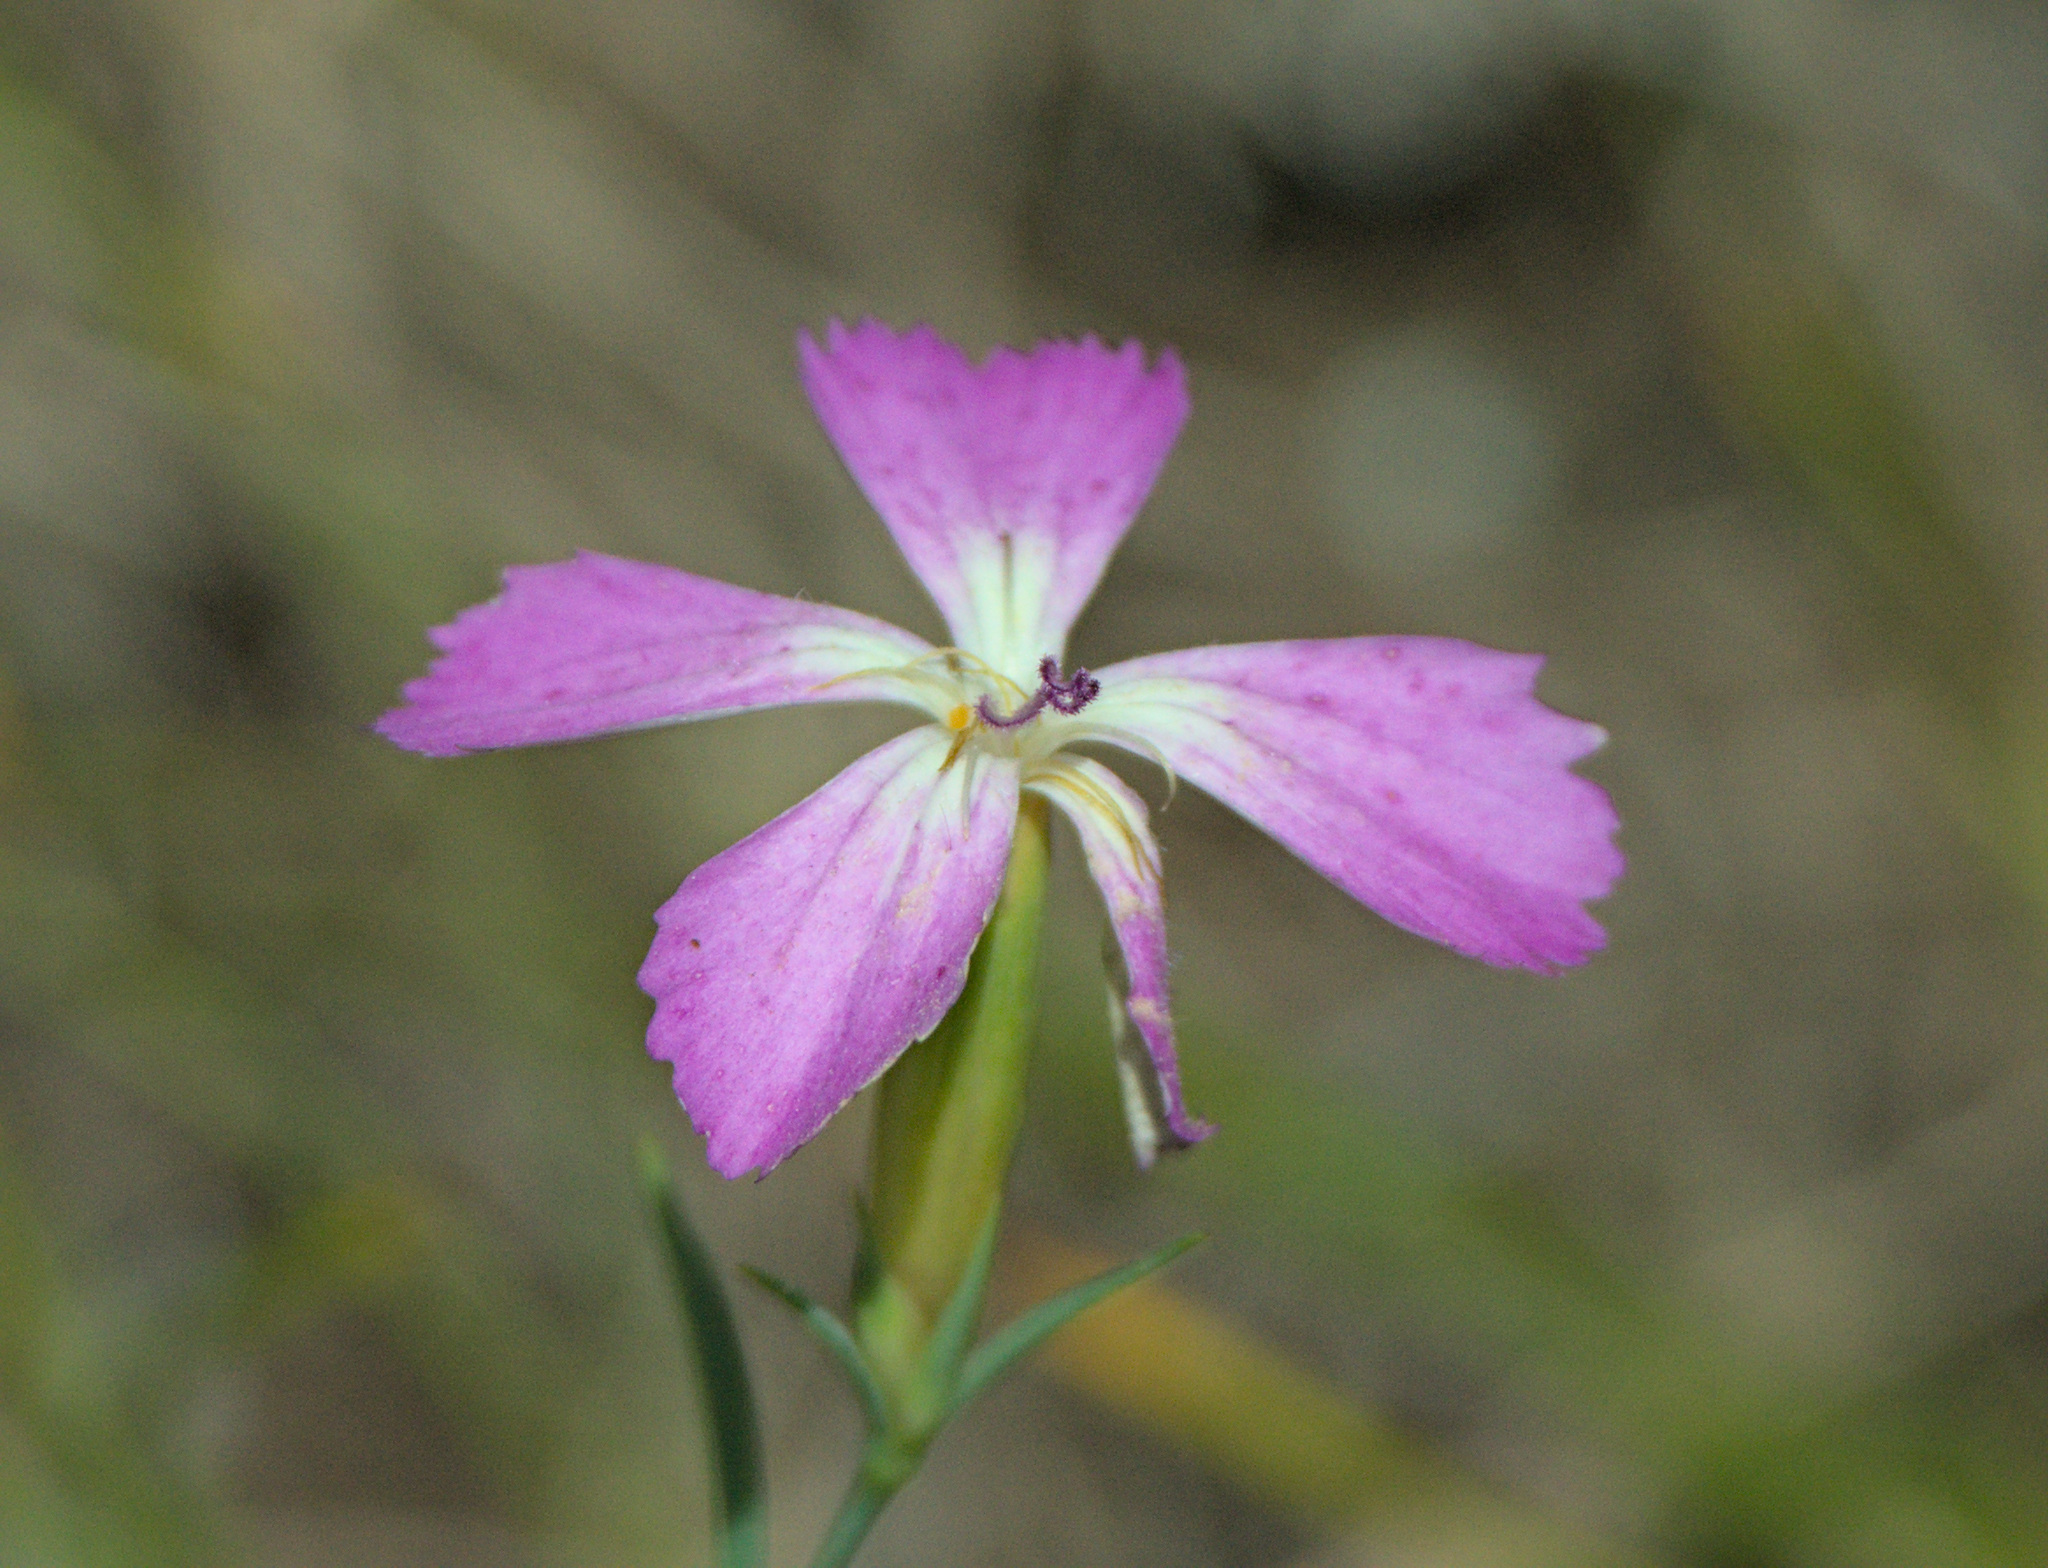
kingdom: Plantae
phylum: Tracheophyta
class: Magnoliopsida
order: Caryophyllales
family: Caryophyllaceae
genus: Dianthus
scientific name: Dianthus chinensis
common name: Rainbow pink
